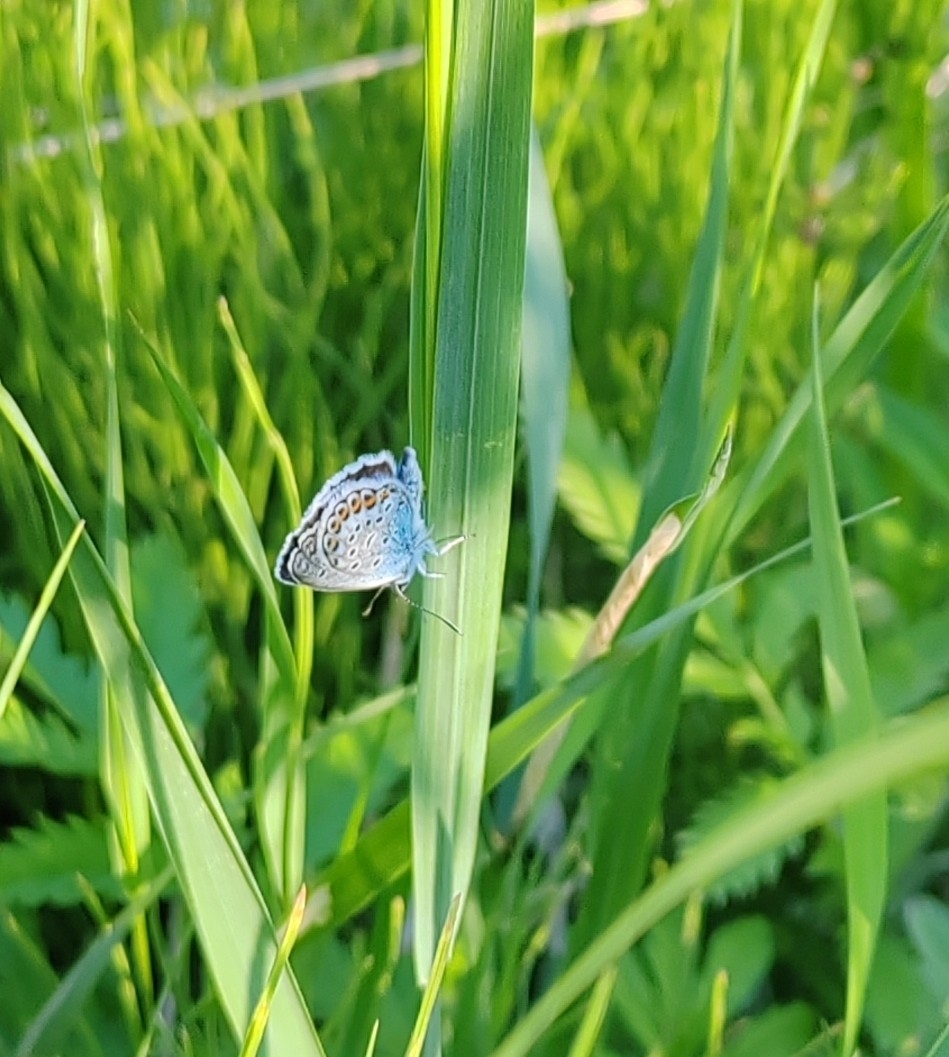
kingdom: Animalia
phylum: Arthropoda
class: Insecta
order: Lepidoptera
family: Lycaenidae
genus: Plebejus
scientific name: Plebejus argus
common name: Silver-studded blue
